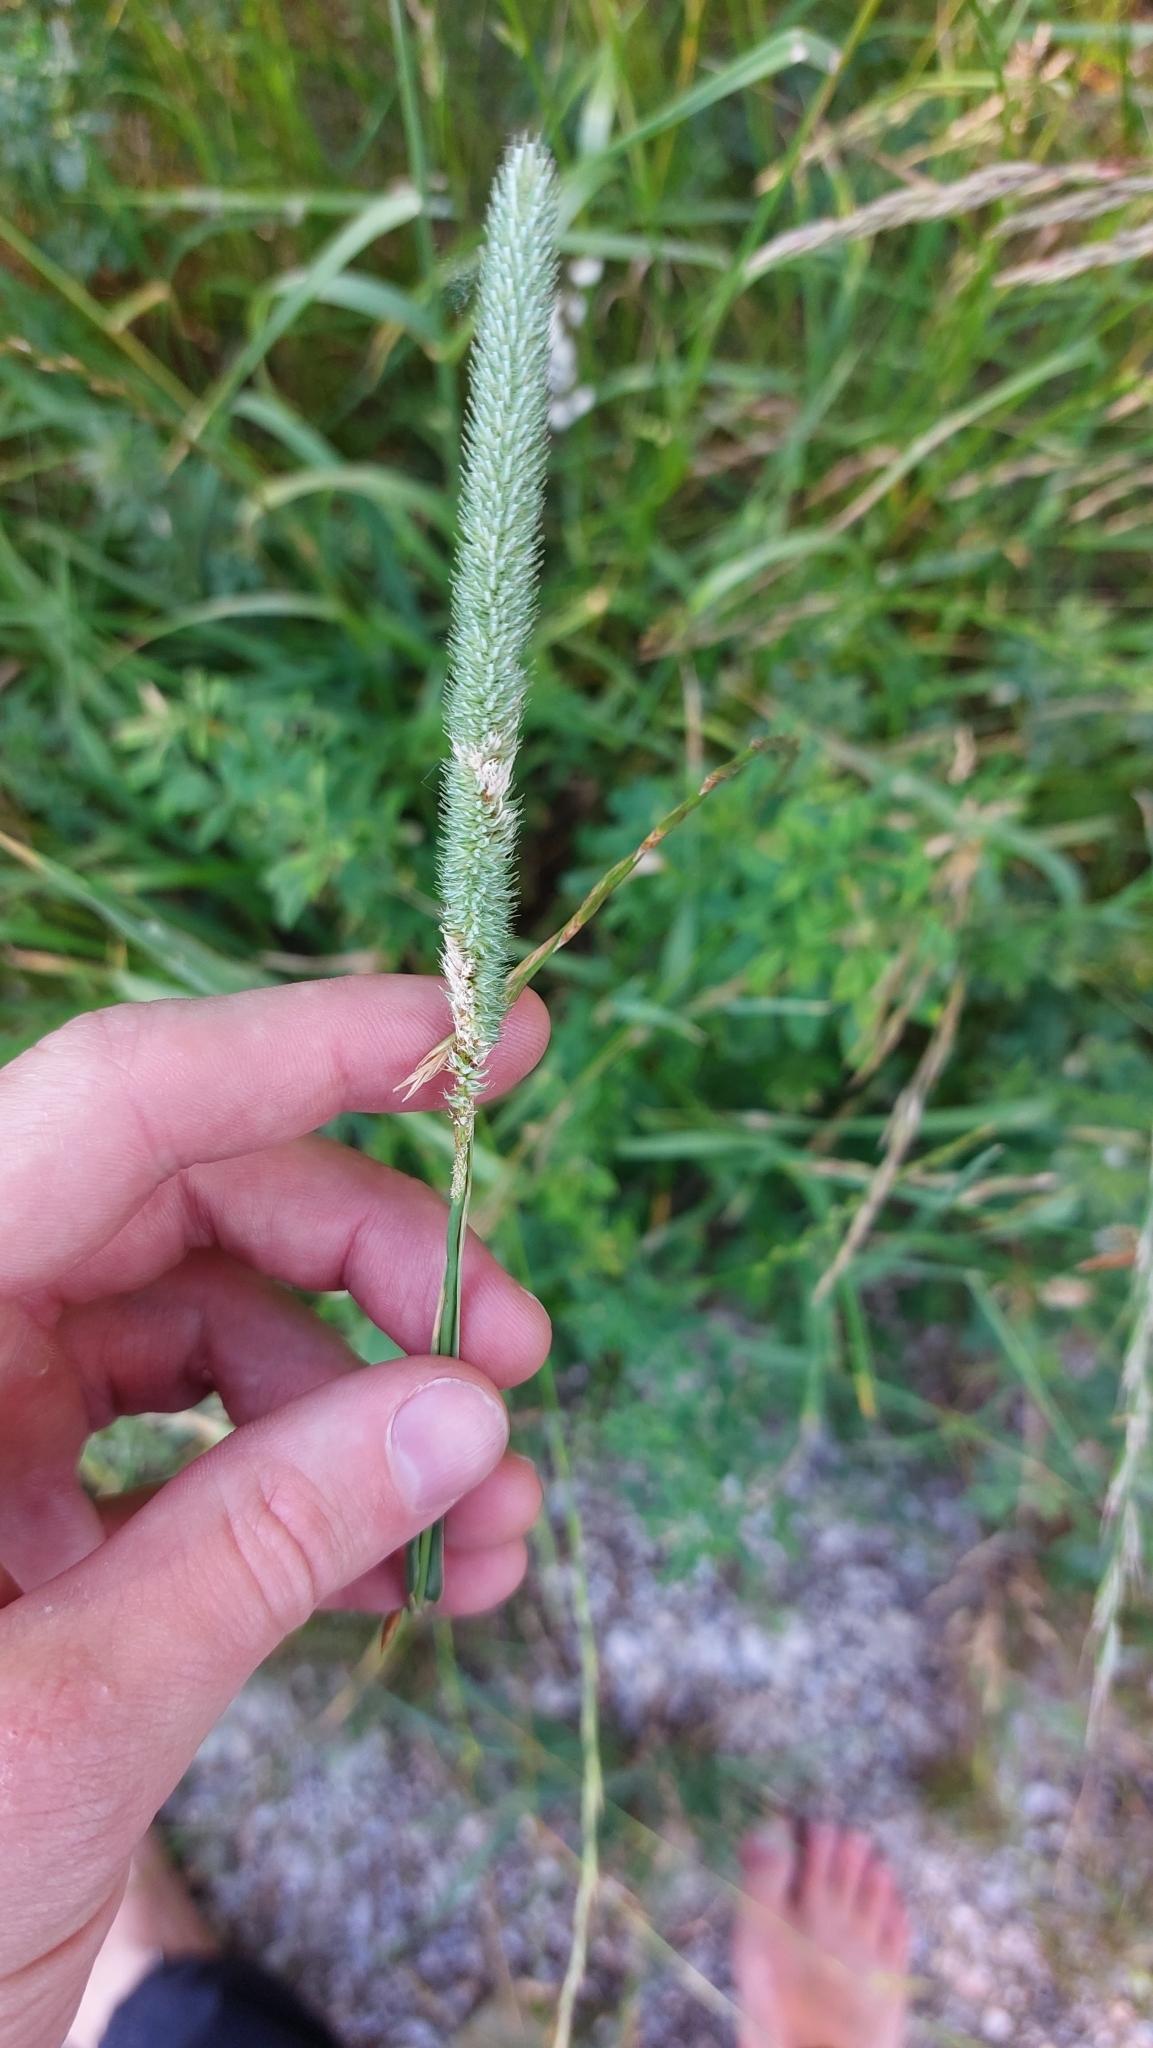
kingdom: Plantae
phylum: Tracheophyta
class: Liliopsida
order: Poales
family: Poaceae
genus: Phleum
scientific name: Phleum pratense
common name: Timothy grass
